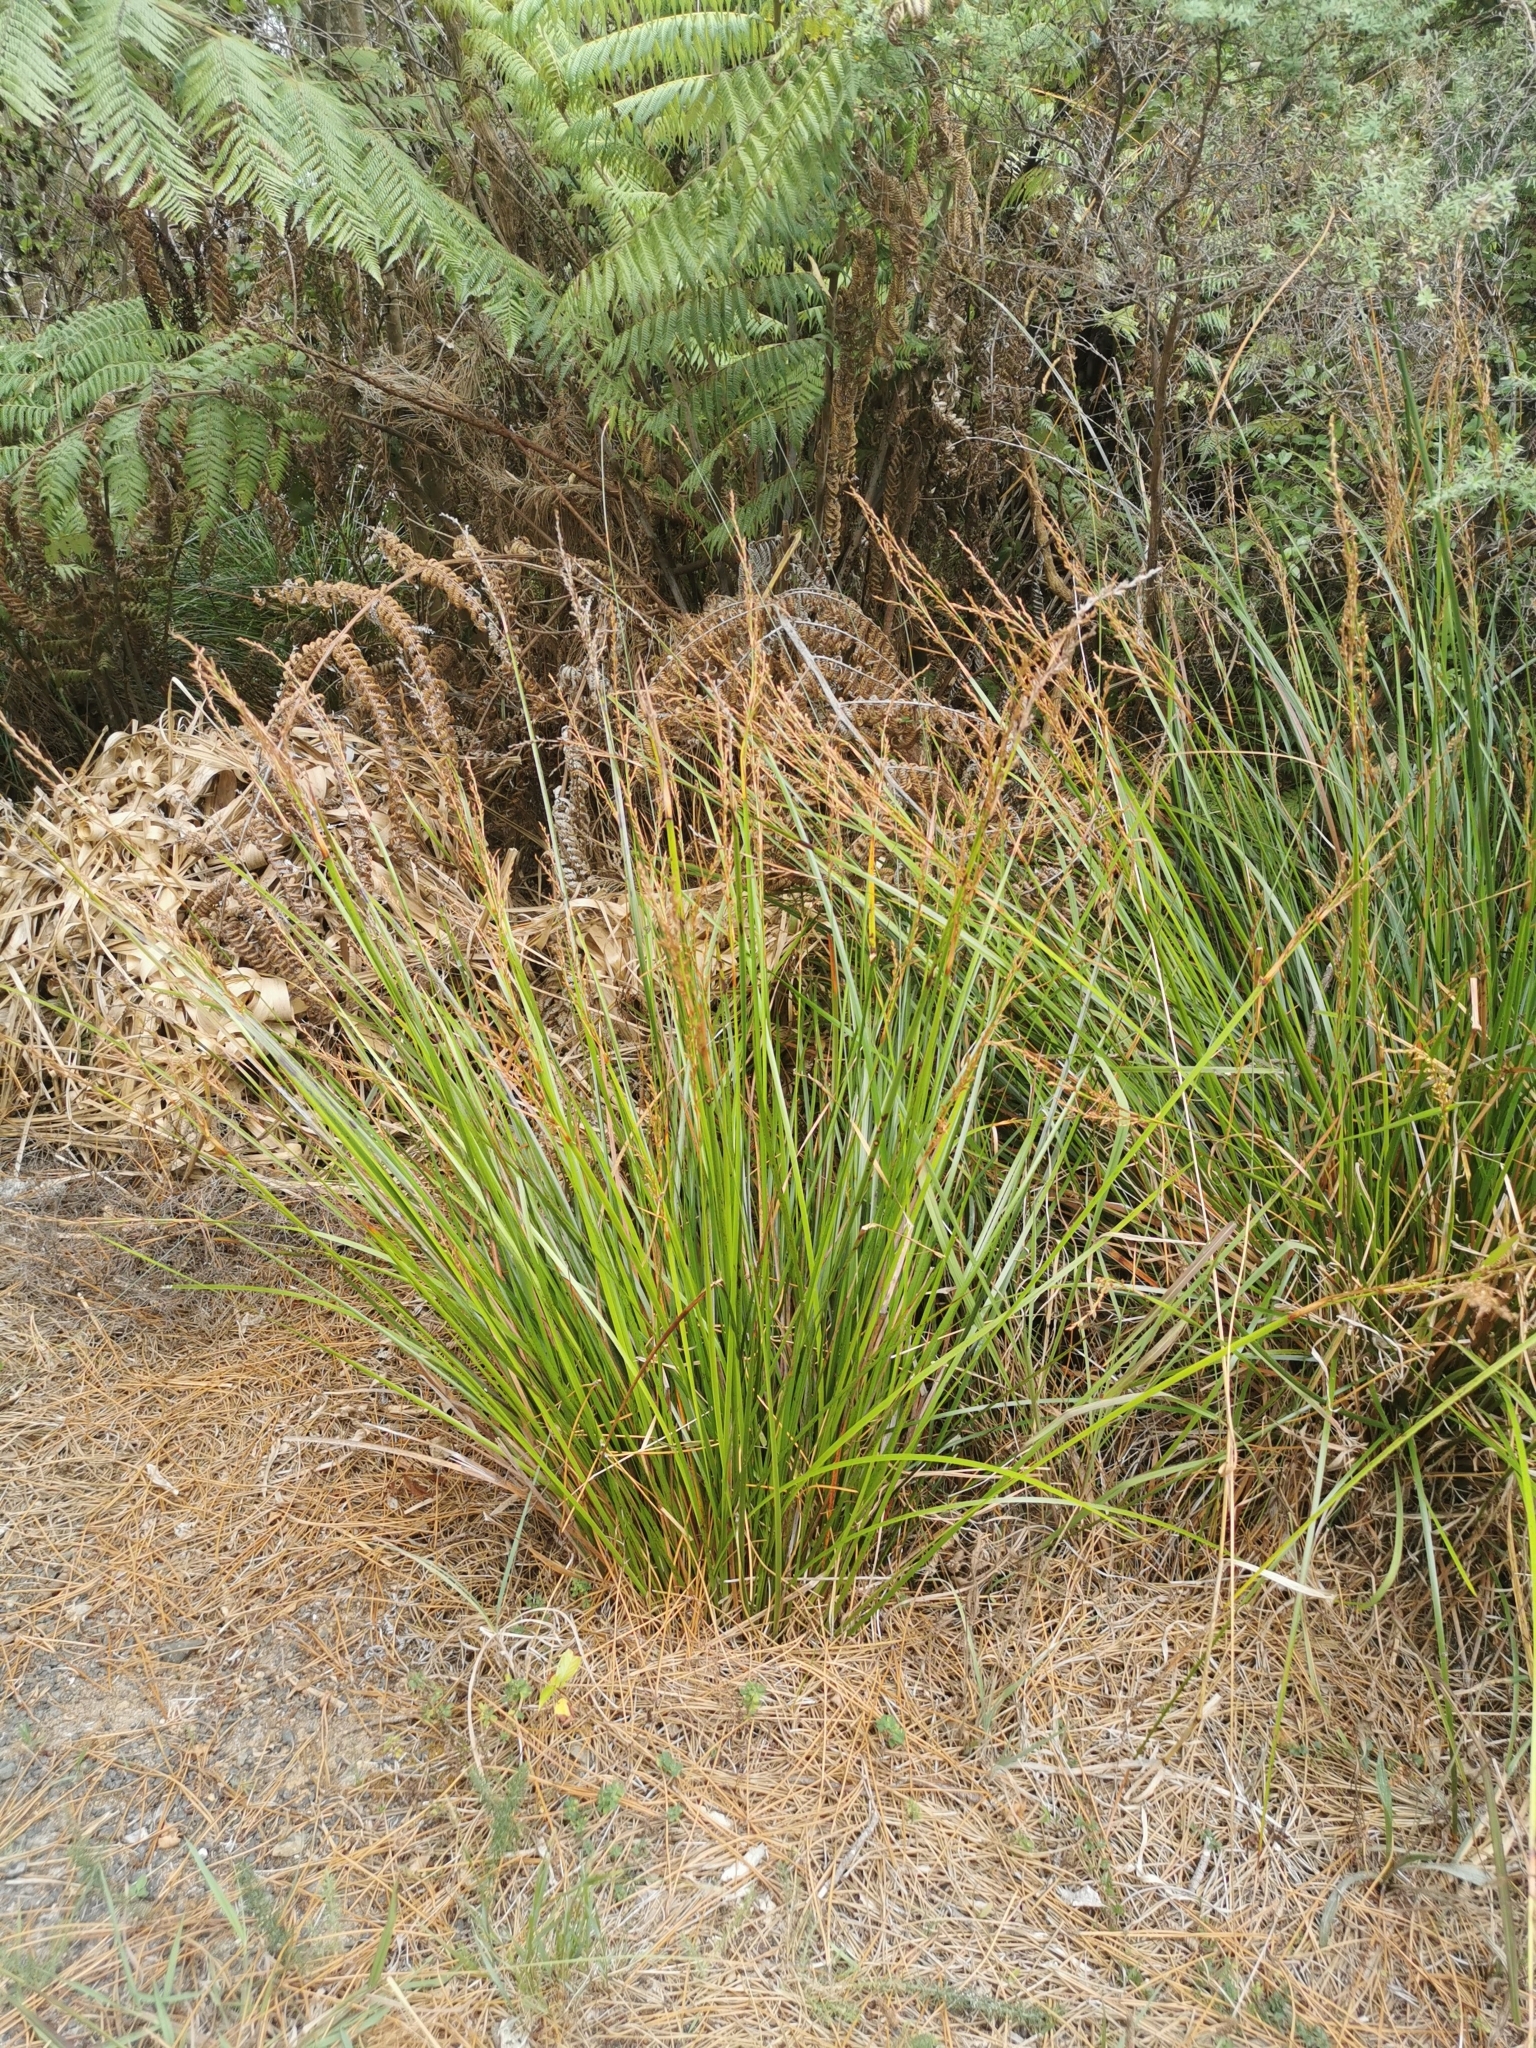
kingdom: Plantae
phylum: Tracheophyta
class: Liliopsida
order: Poales
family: Cyperaceae
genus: Lepidosperma
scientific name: Lepidosperma laterale
